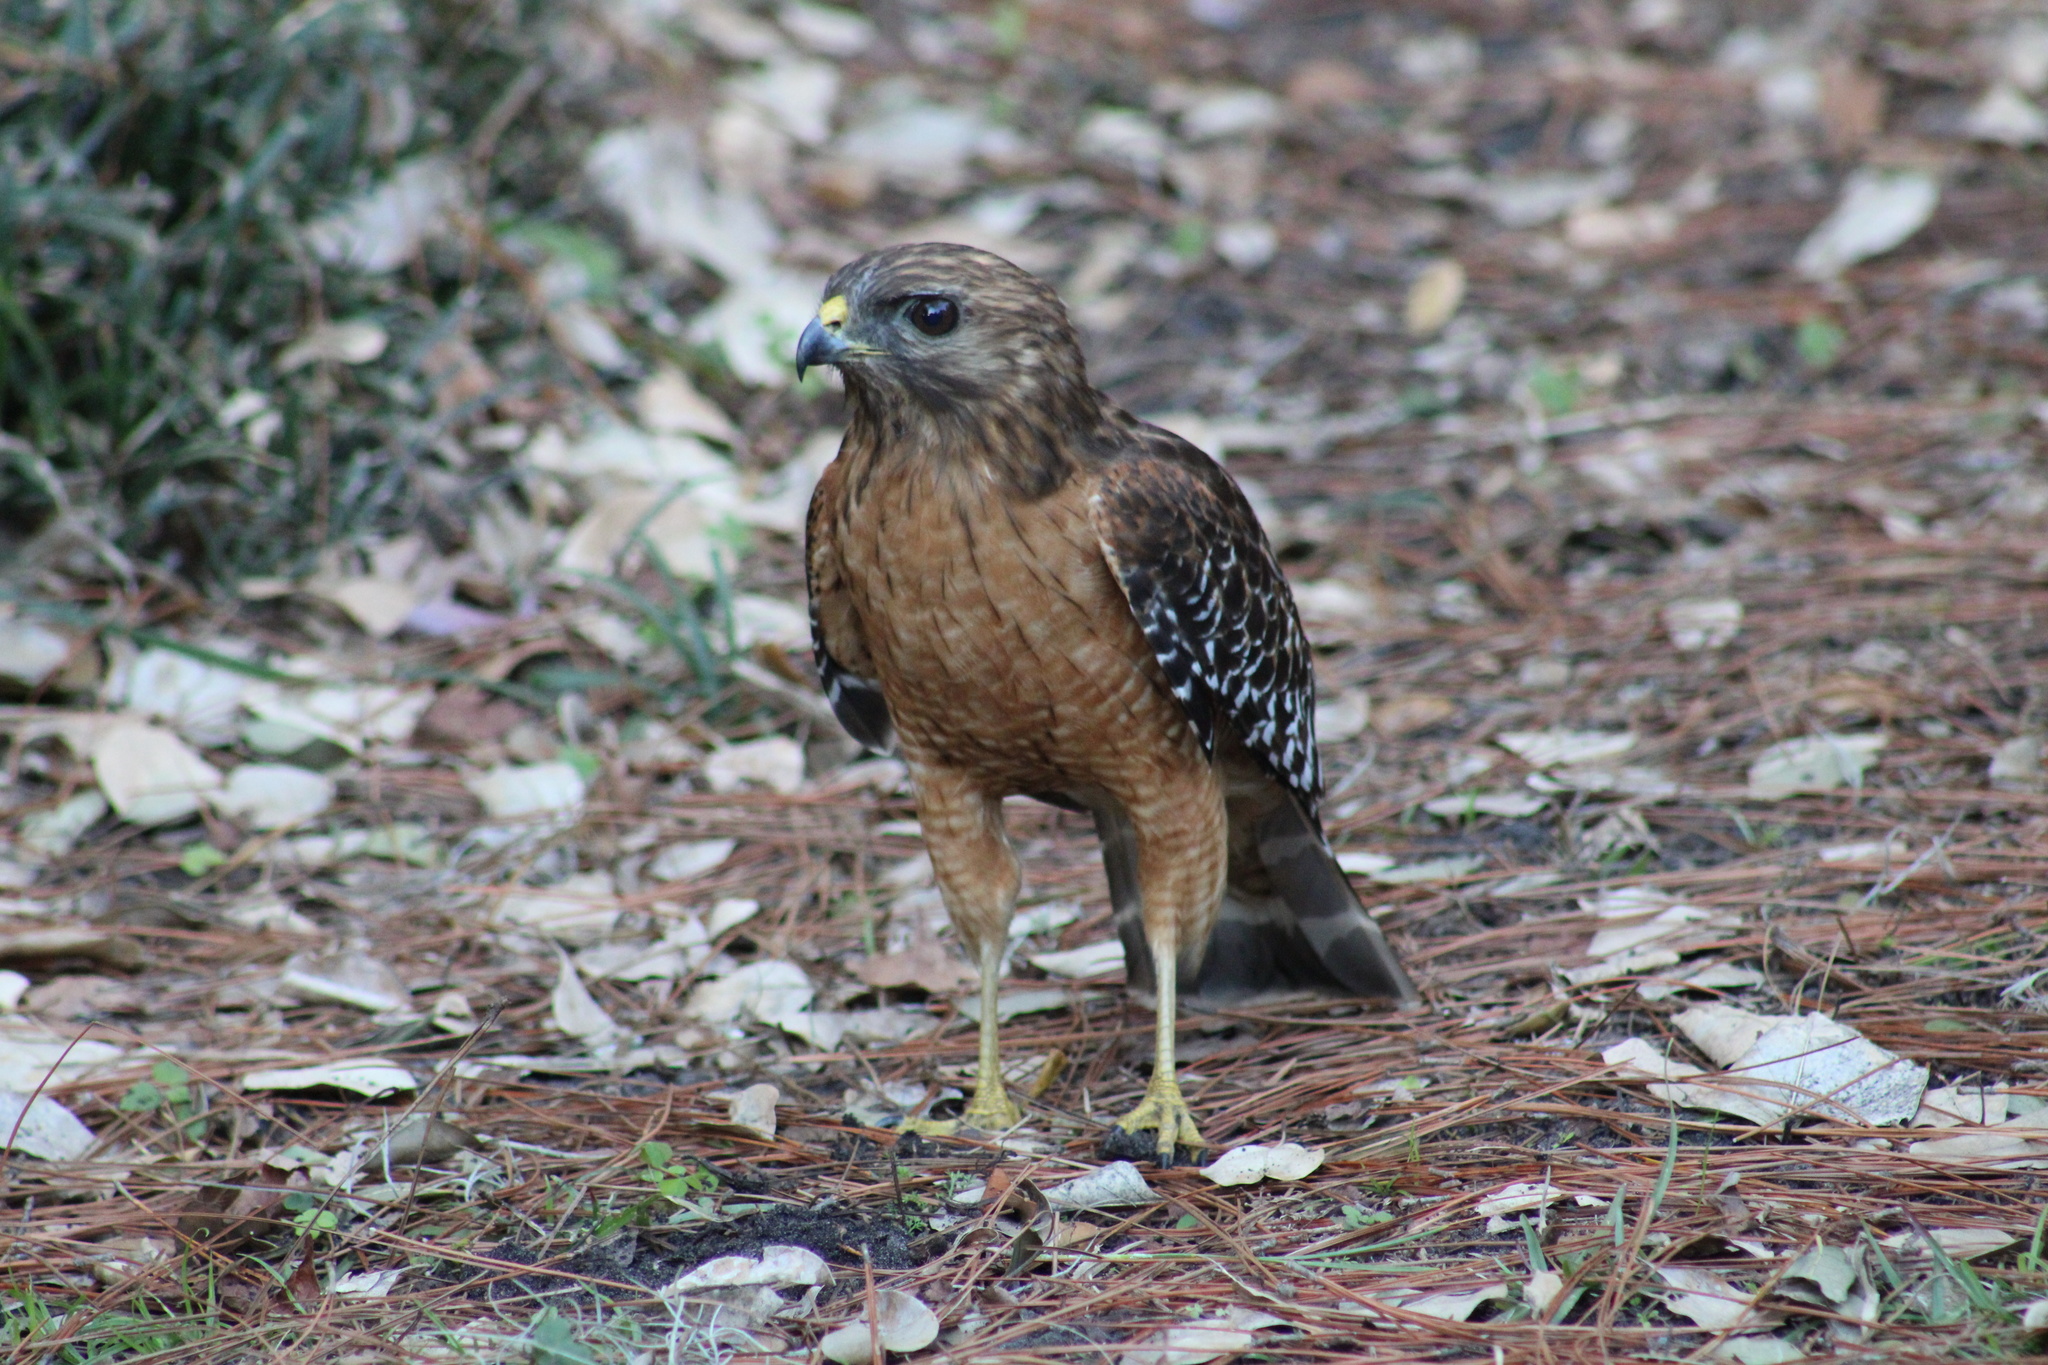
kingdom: Animalia
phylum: Chordata
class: Aves
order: Accipitriformes
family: Accipitridae
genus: Buteo
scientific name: Buteo lineatus
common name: Red-shouldered hawk
